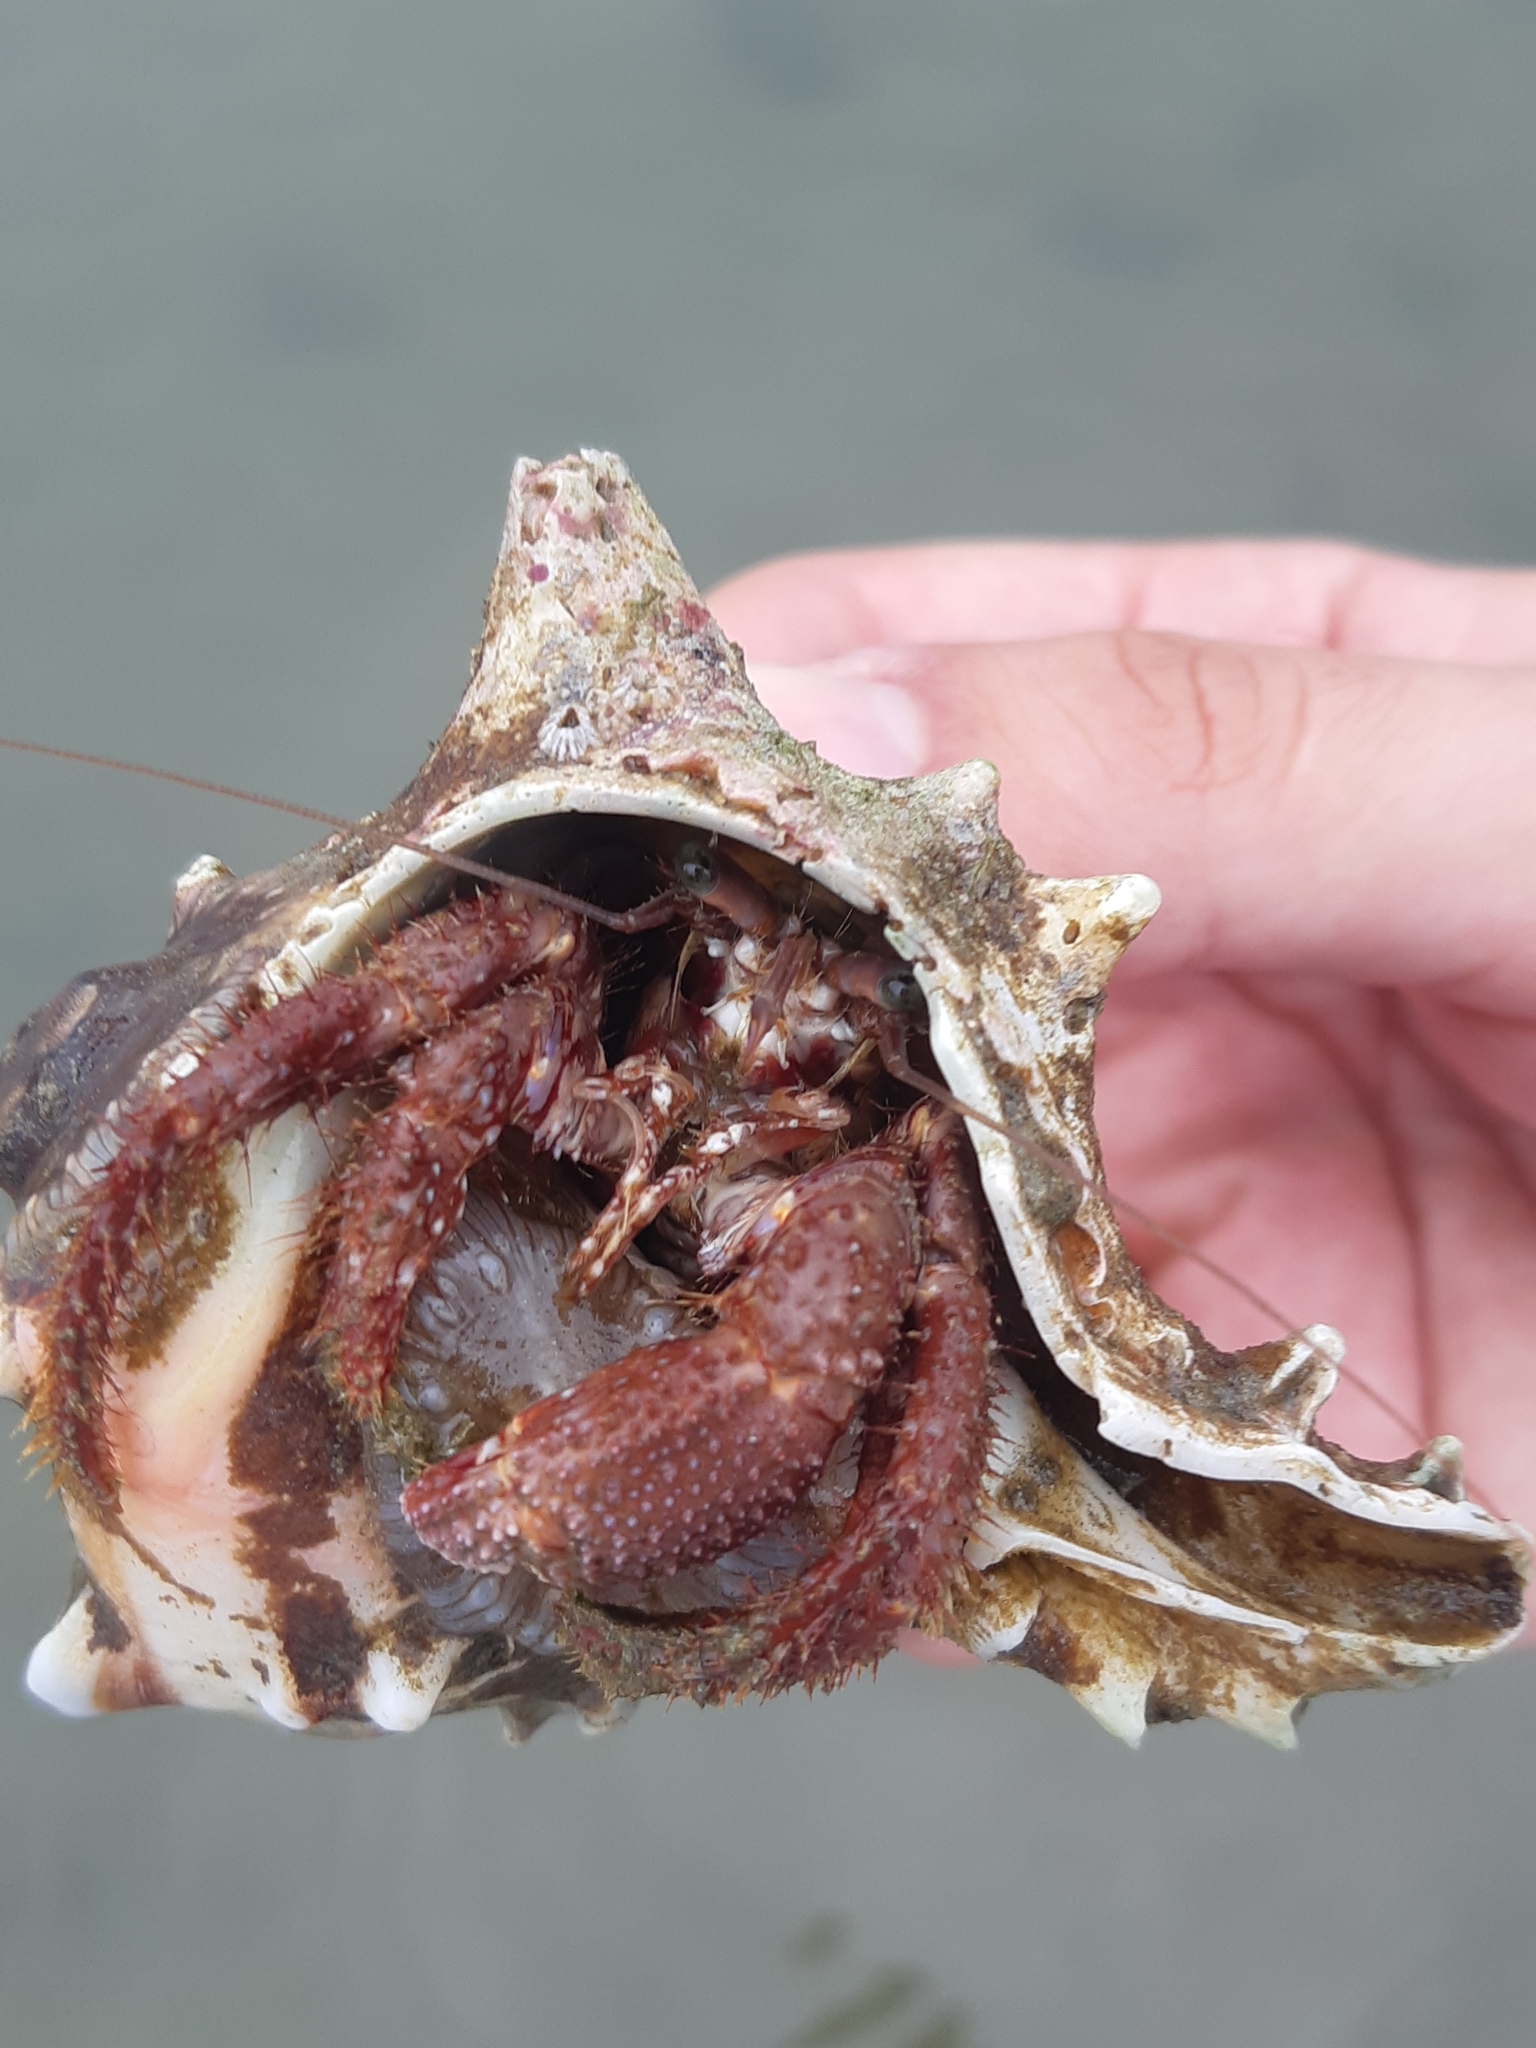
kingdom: Animalia
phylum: Mollusca
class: Gastropoda
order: Neogastropoda
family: Muricidae
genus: Hexaplex
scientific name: Hexaplex brassica
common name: Cabbage murex
